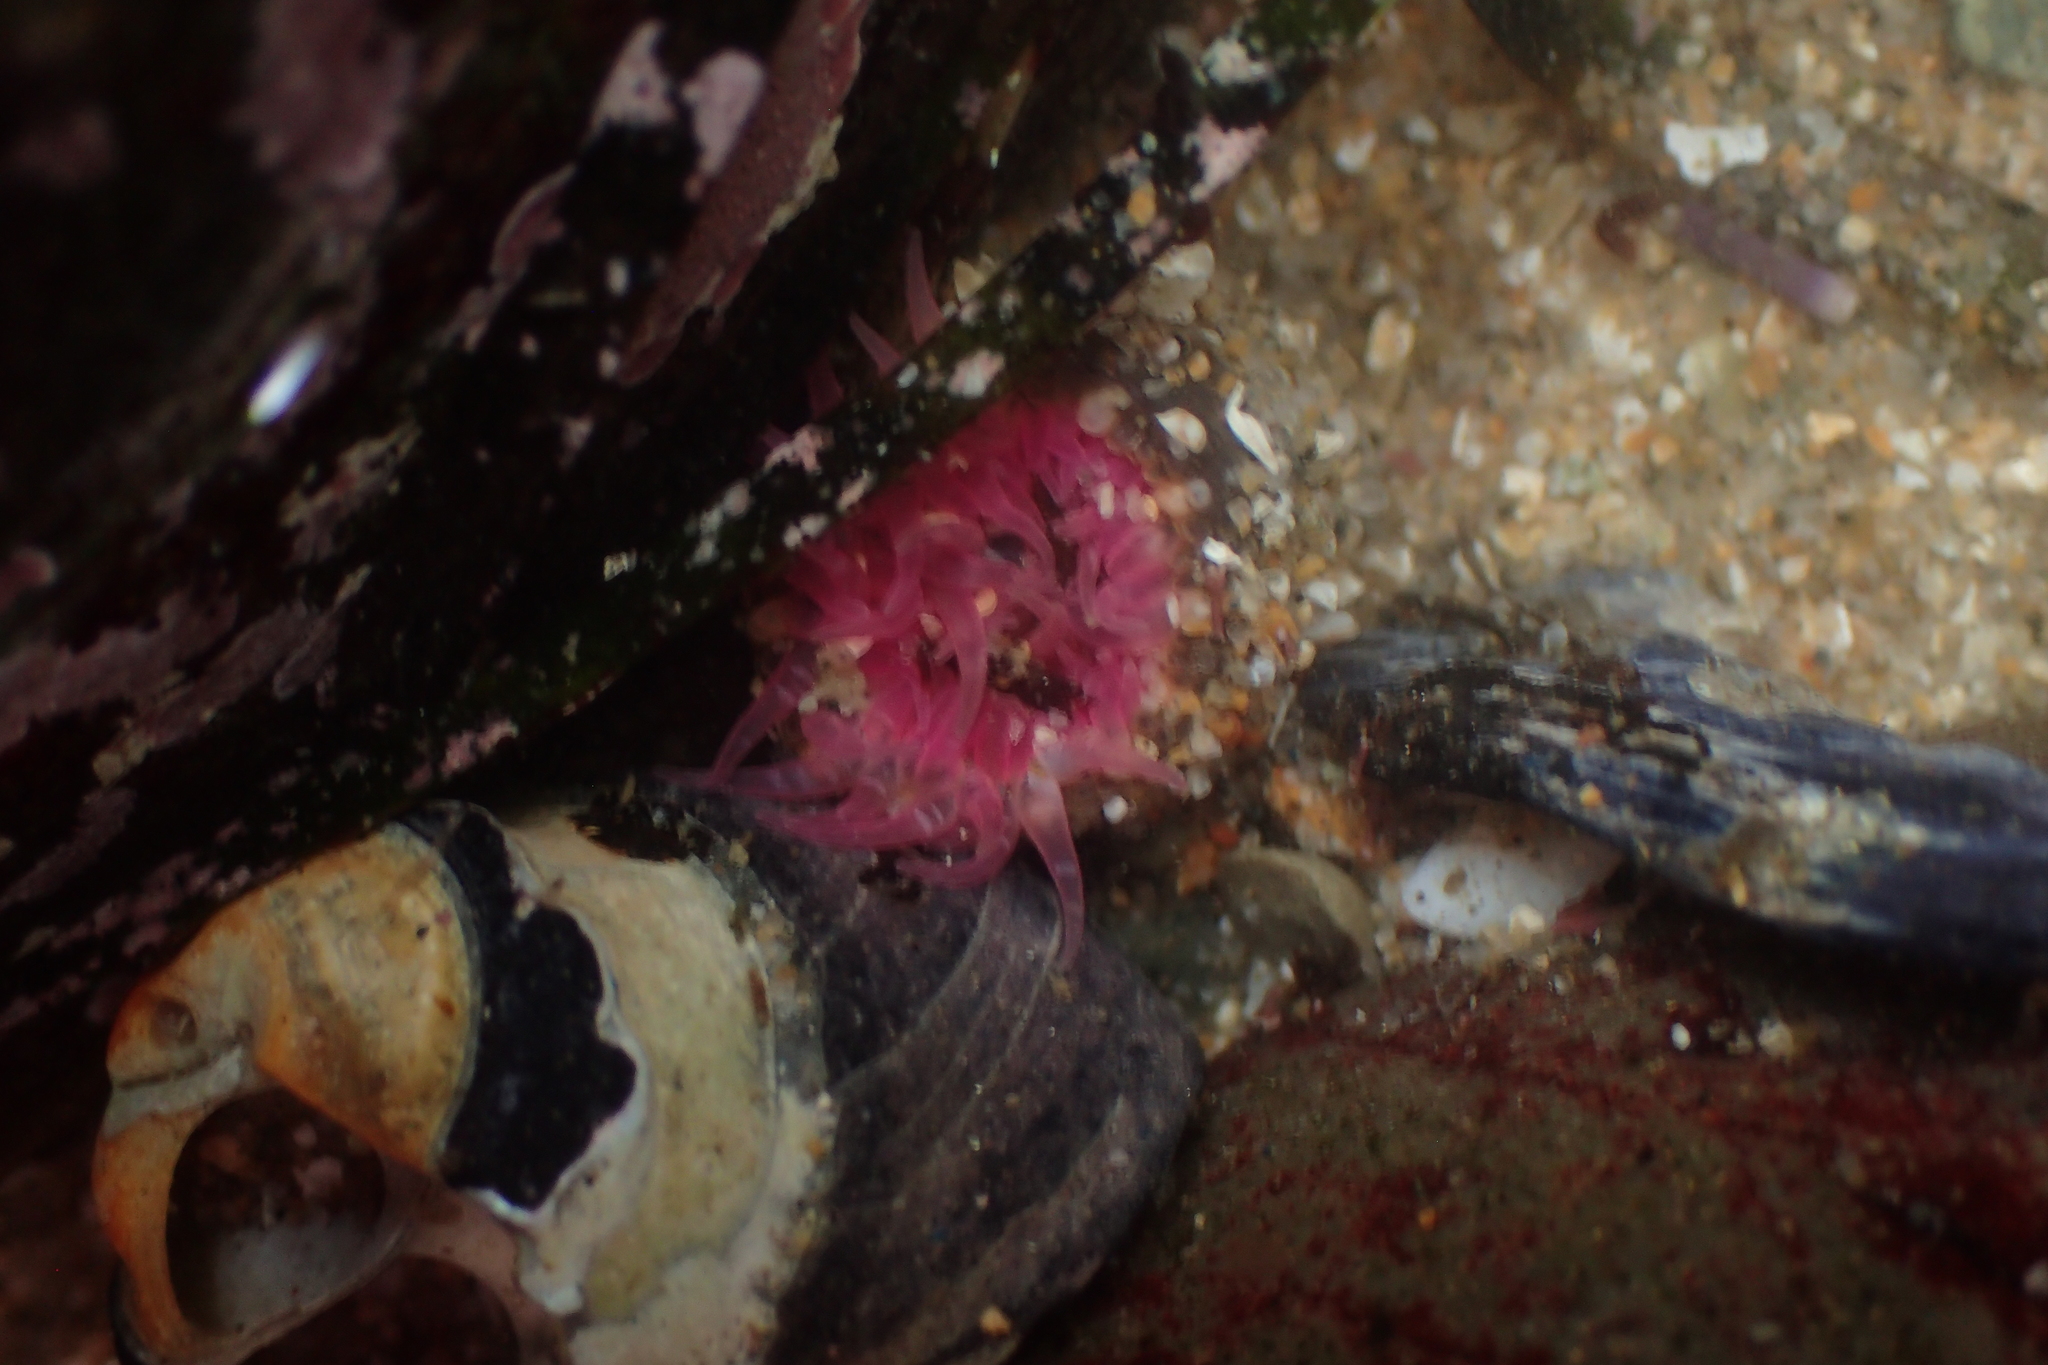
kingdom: Animalia
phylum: Cnidaria
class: Anthozoa
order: Actiniaria
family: Actiniidae
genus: Anthopleura
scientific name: Anthopleura artemisia
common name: Buried sea anemone
